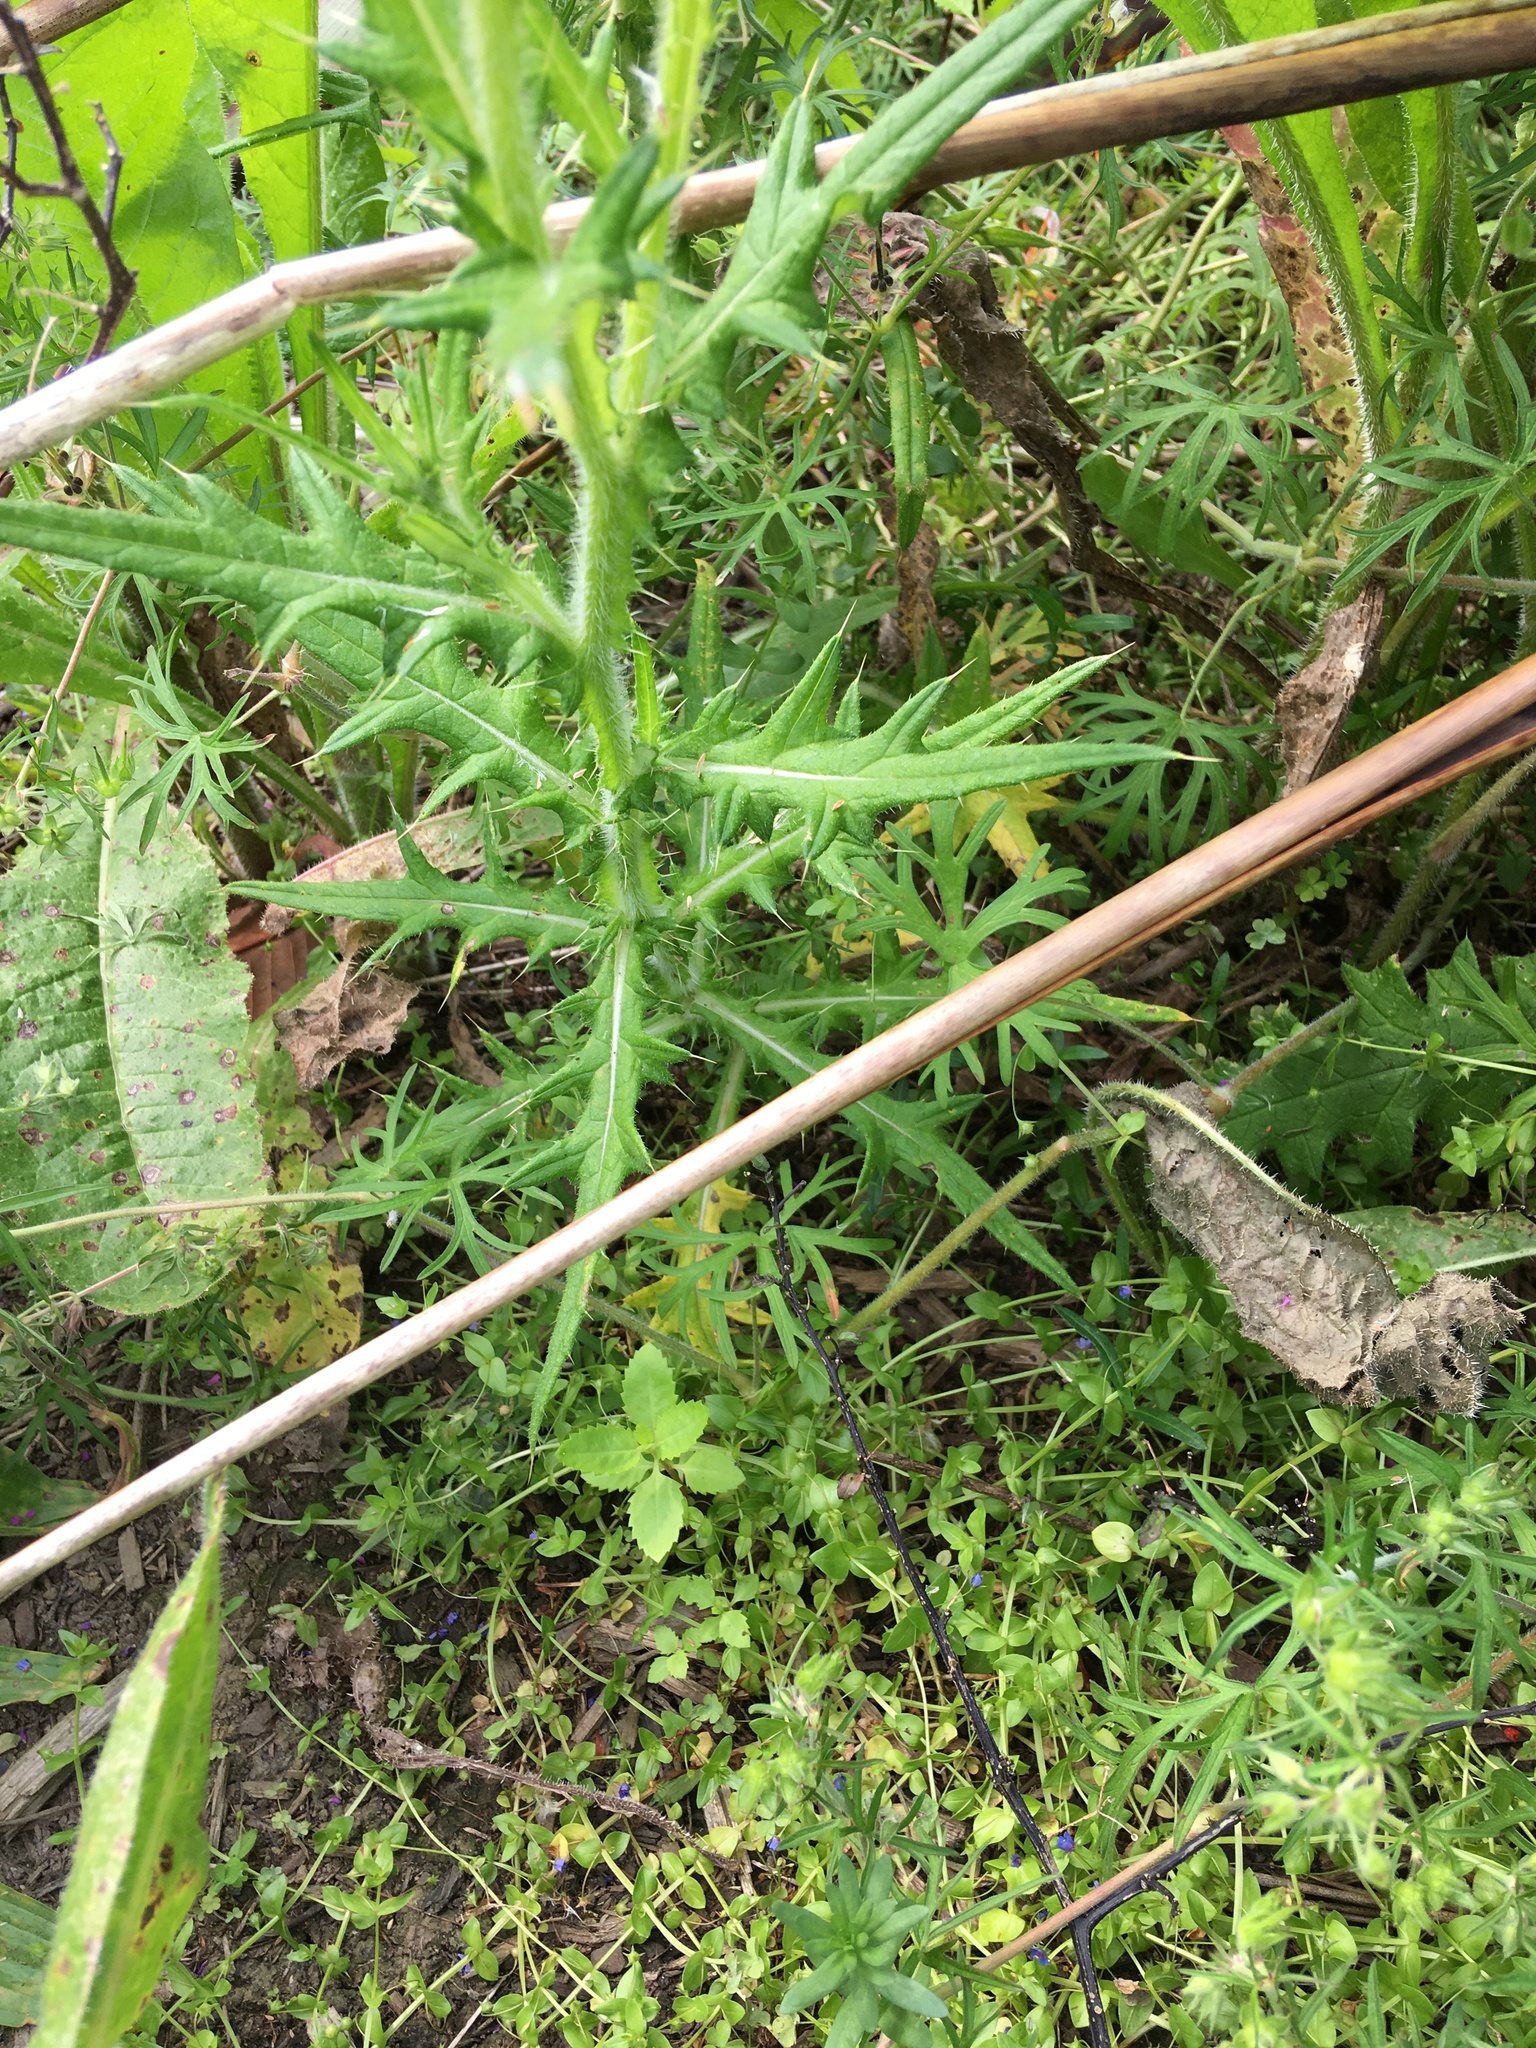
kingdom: Plantae
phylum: Tracheophyta
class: Magnoliopsida
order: Asterales
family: Asteraceae
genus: Cirsium
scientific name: Cirsium vulgare
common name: Bull thistle
